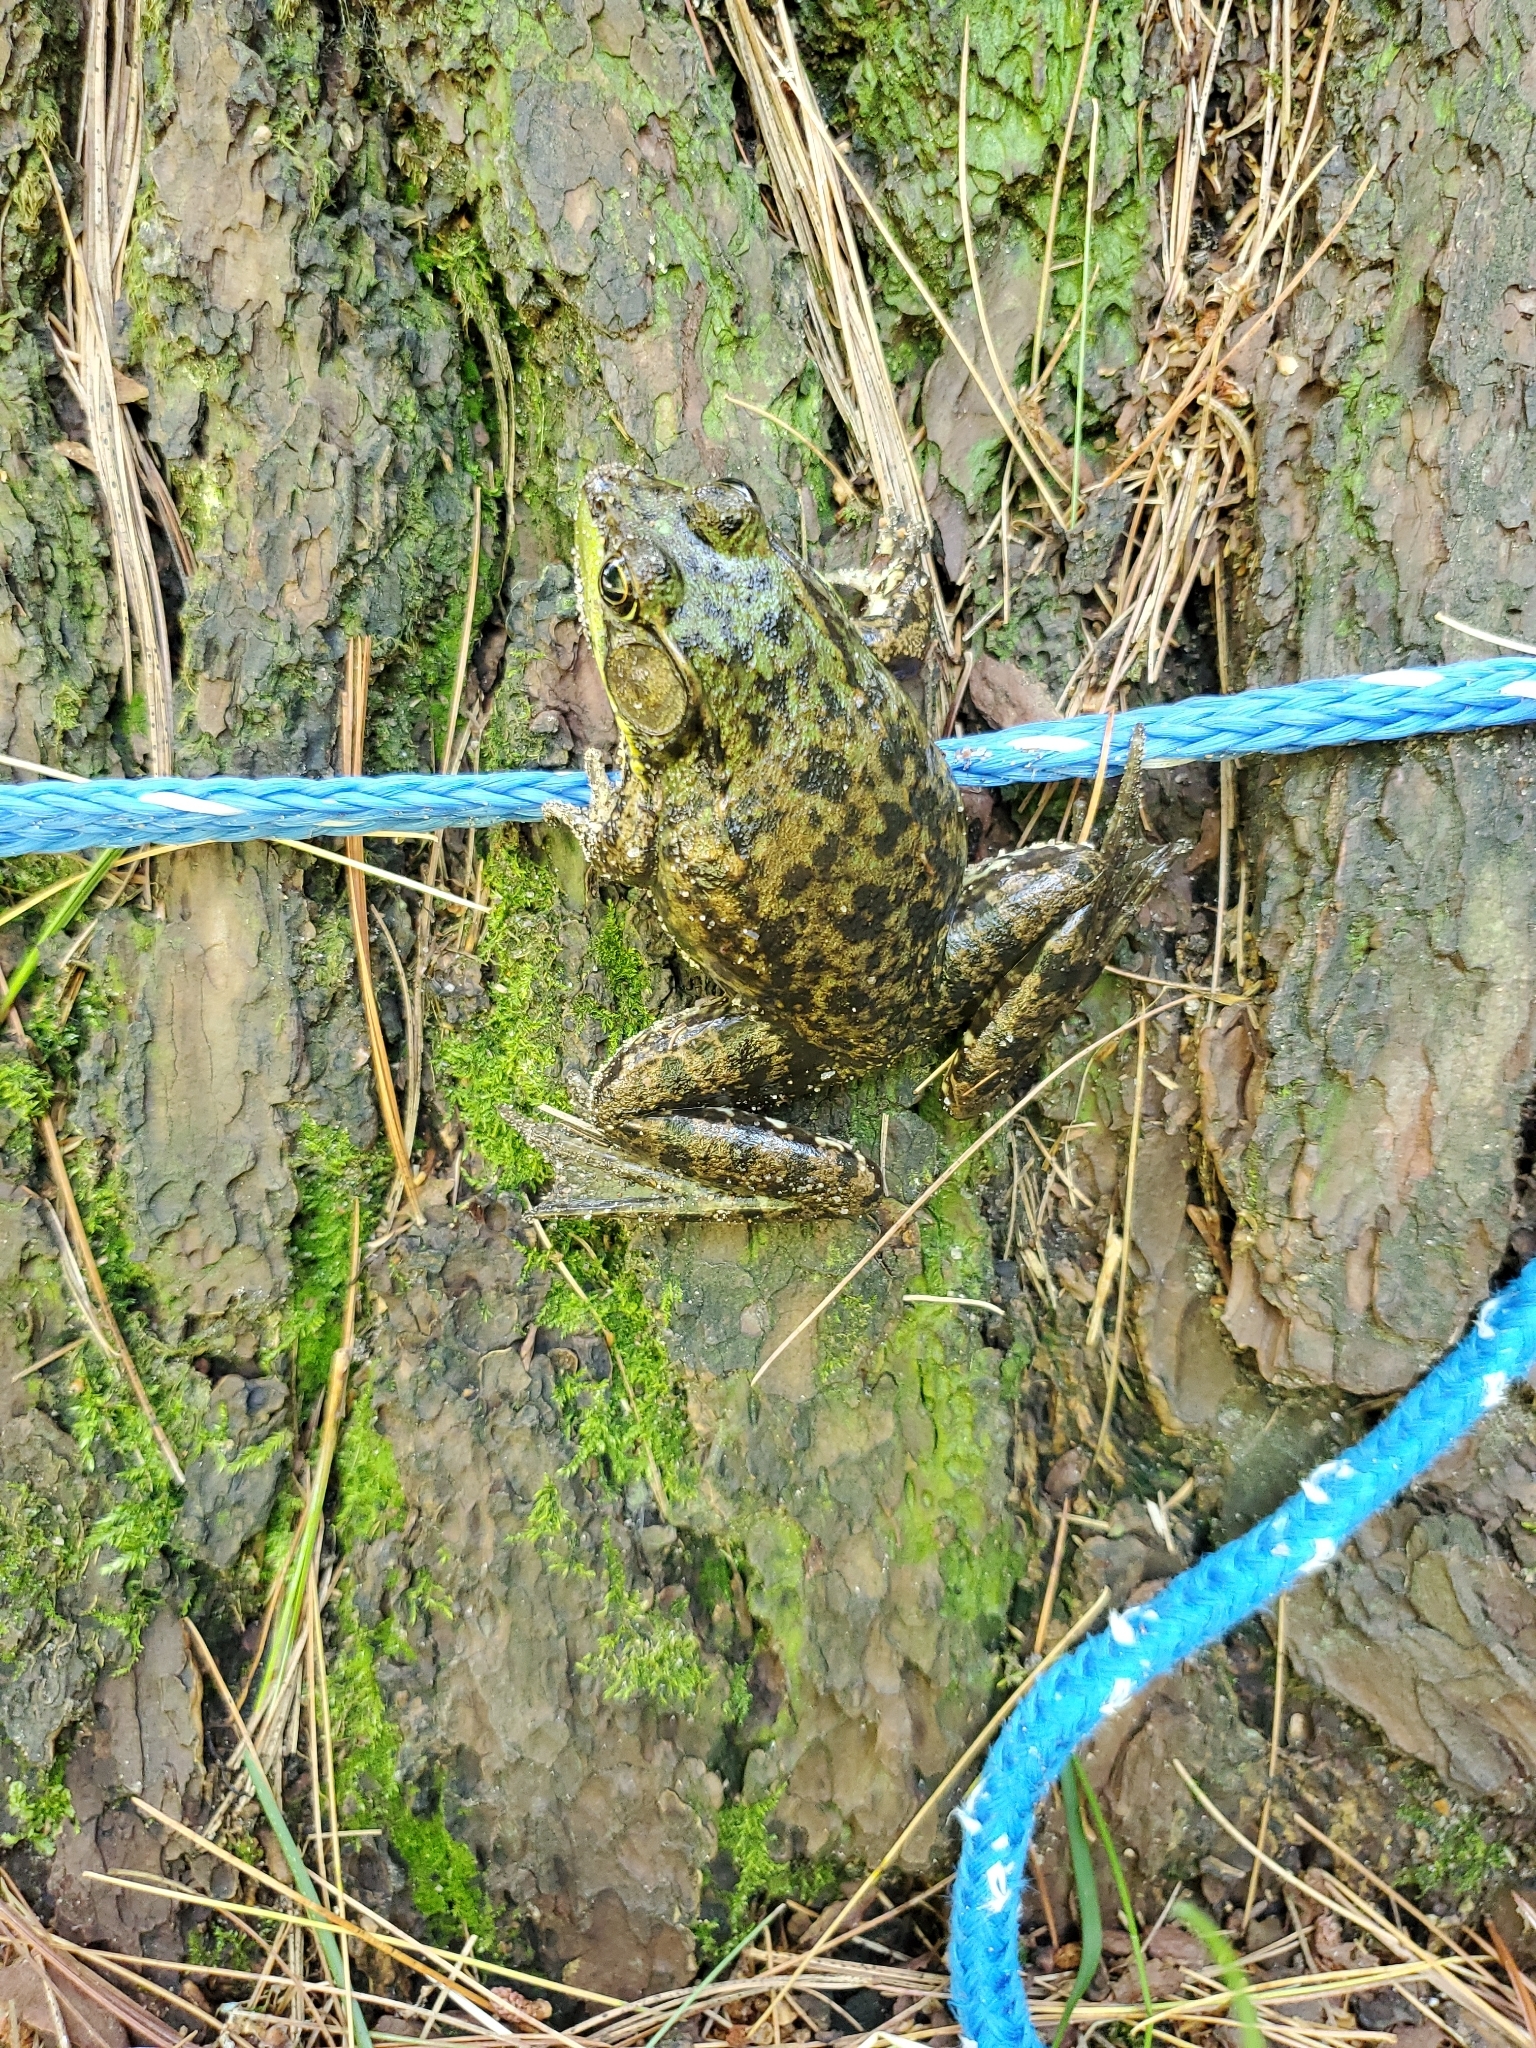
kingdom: Animalia
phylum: Chordata
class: Amphibia
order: Anura
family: Ranidae
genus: Lithobates
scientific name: Lithobates clamitans
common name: Green frog
